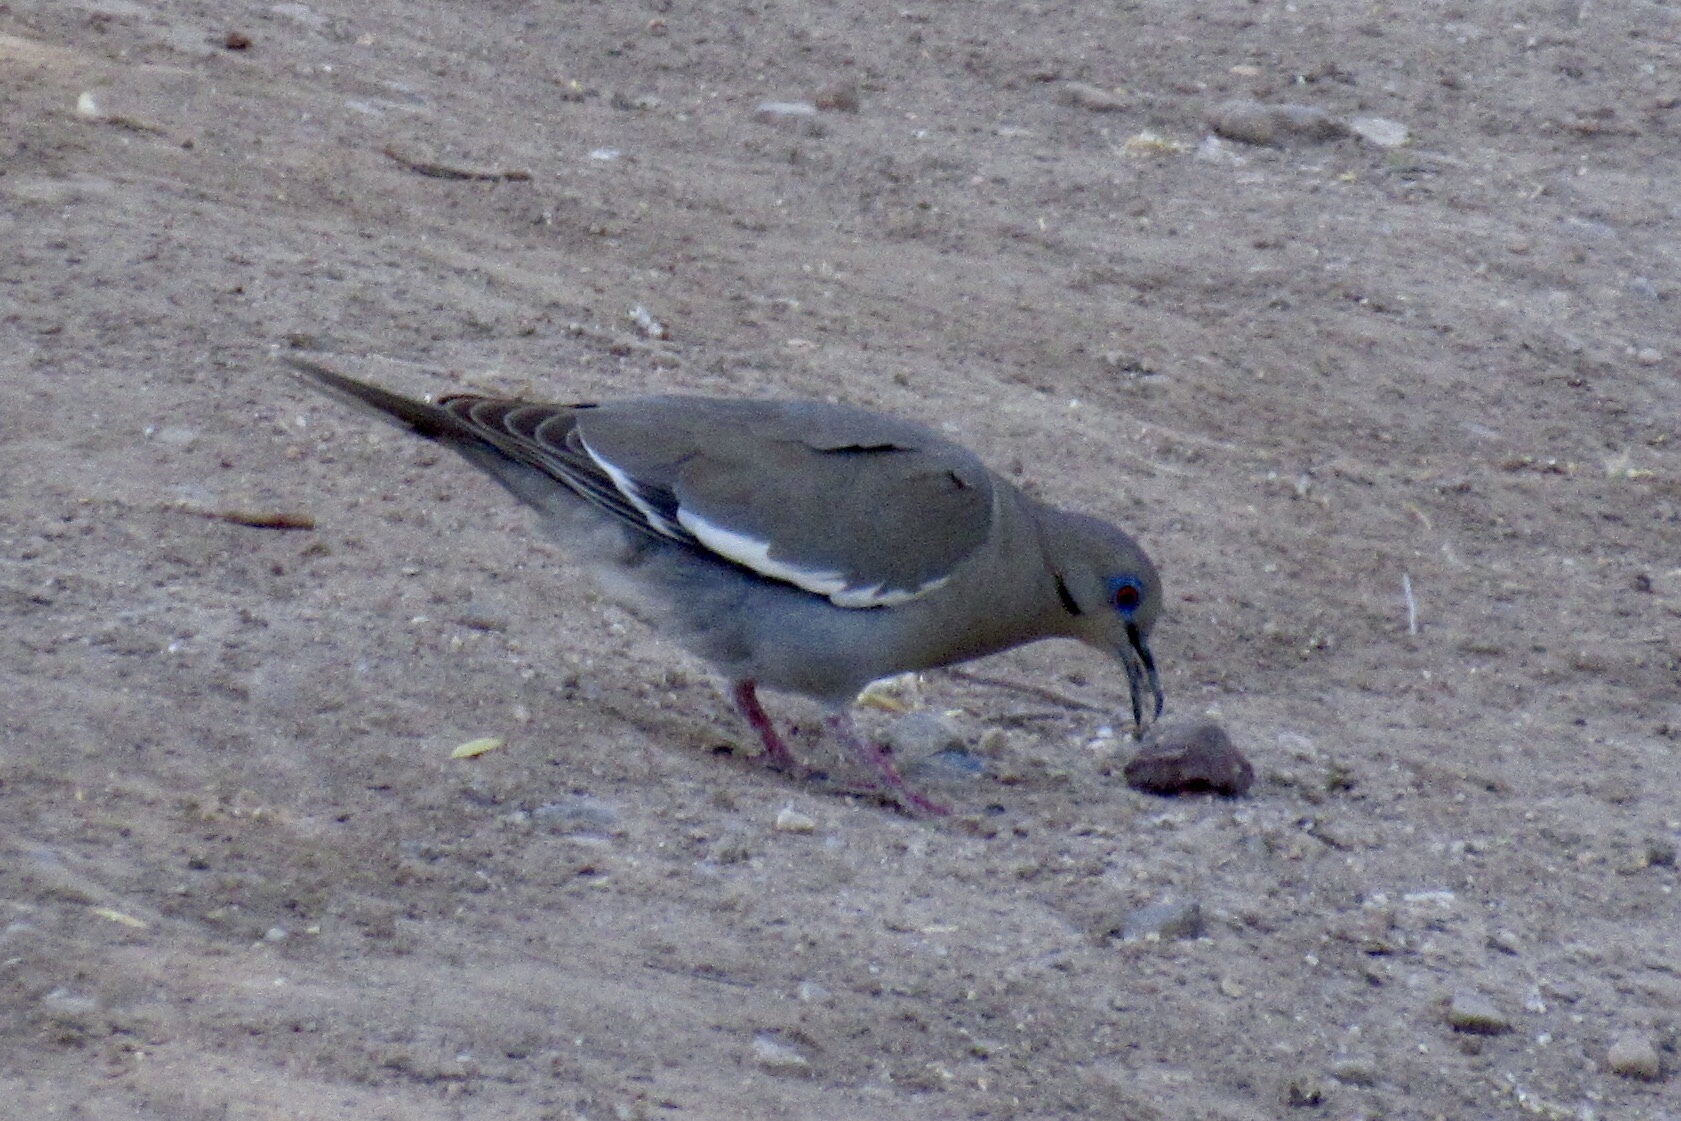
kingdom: Animalia
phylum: Chordata
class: Aves
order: Columbiformes
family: Columbidae
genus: Zenaida
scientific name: Zenaida asiatica
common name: White-winged dove
